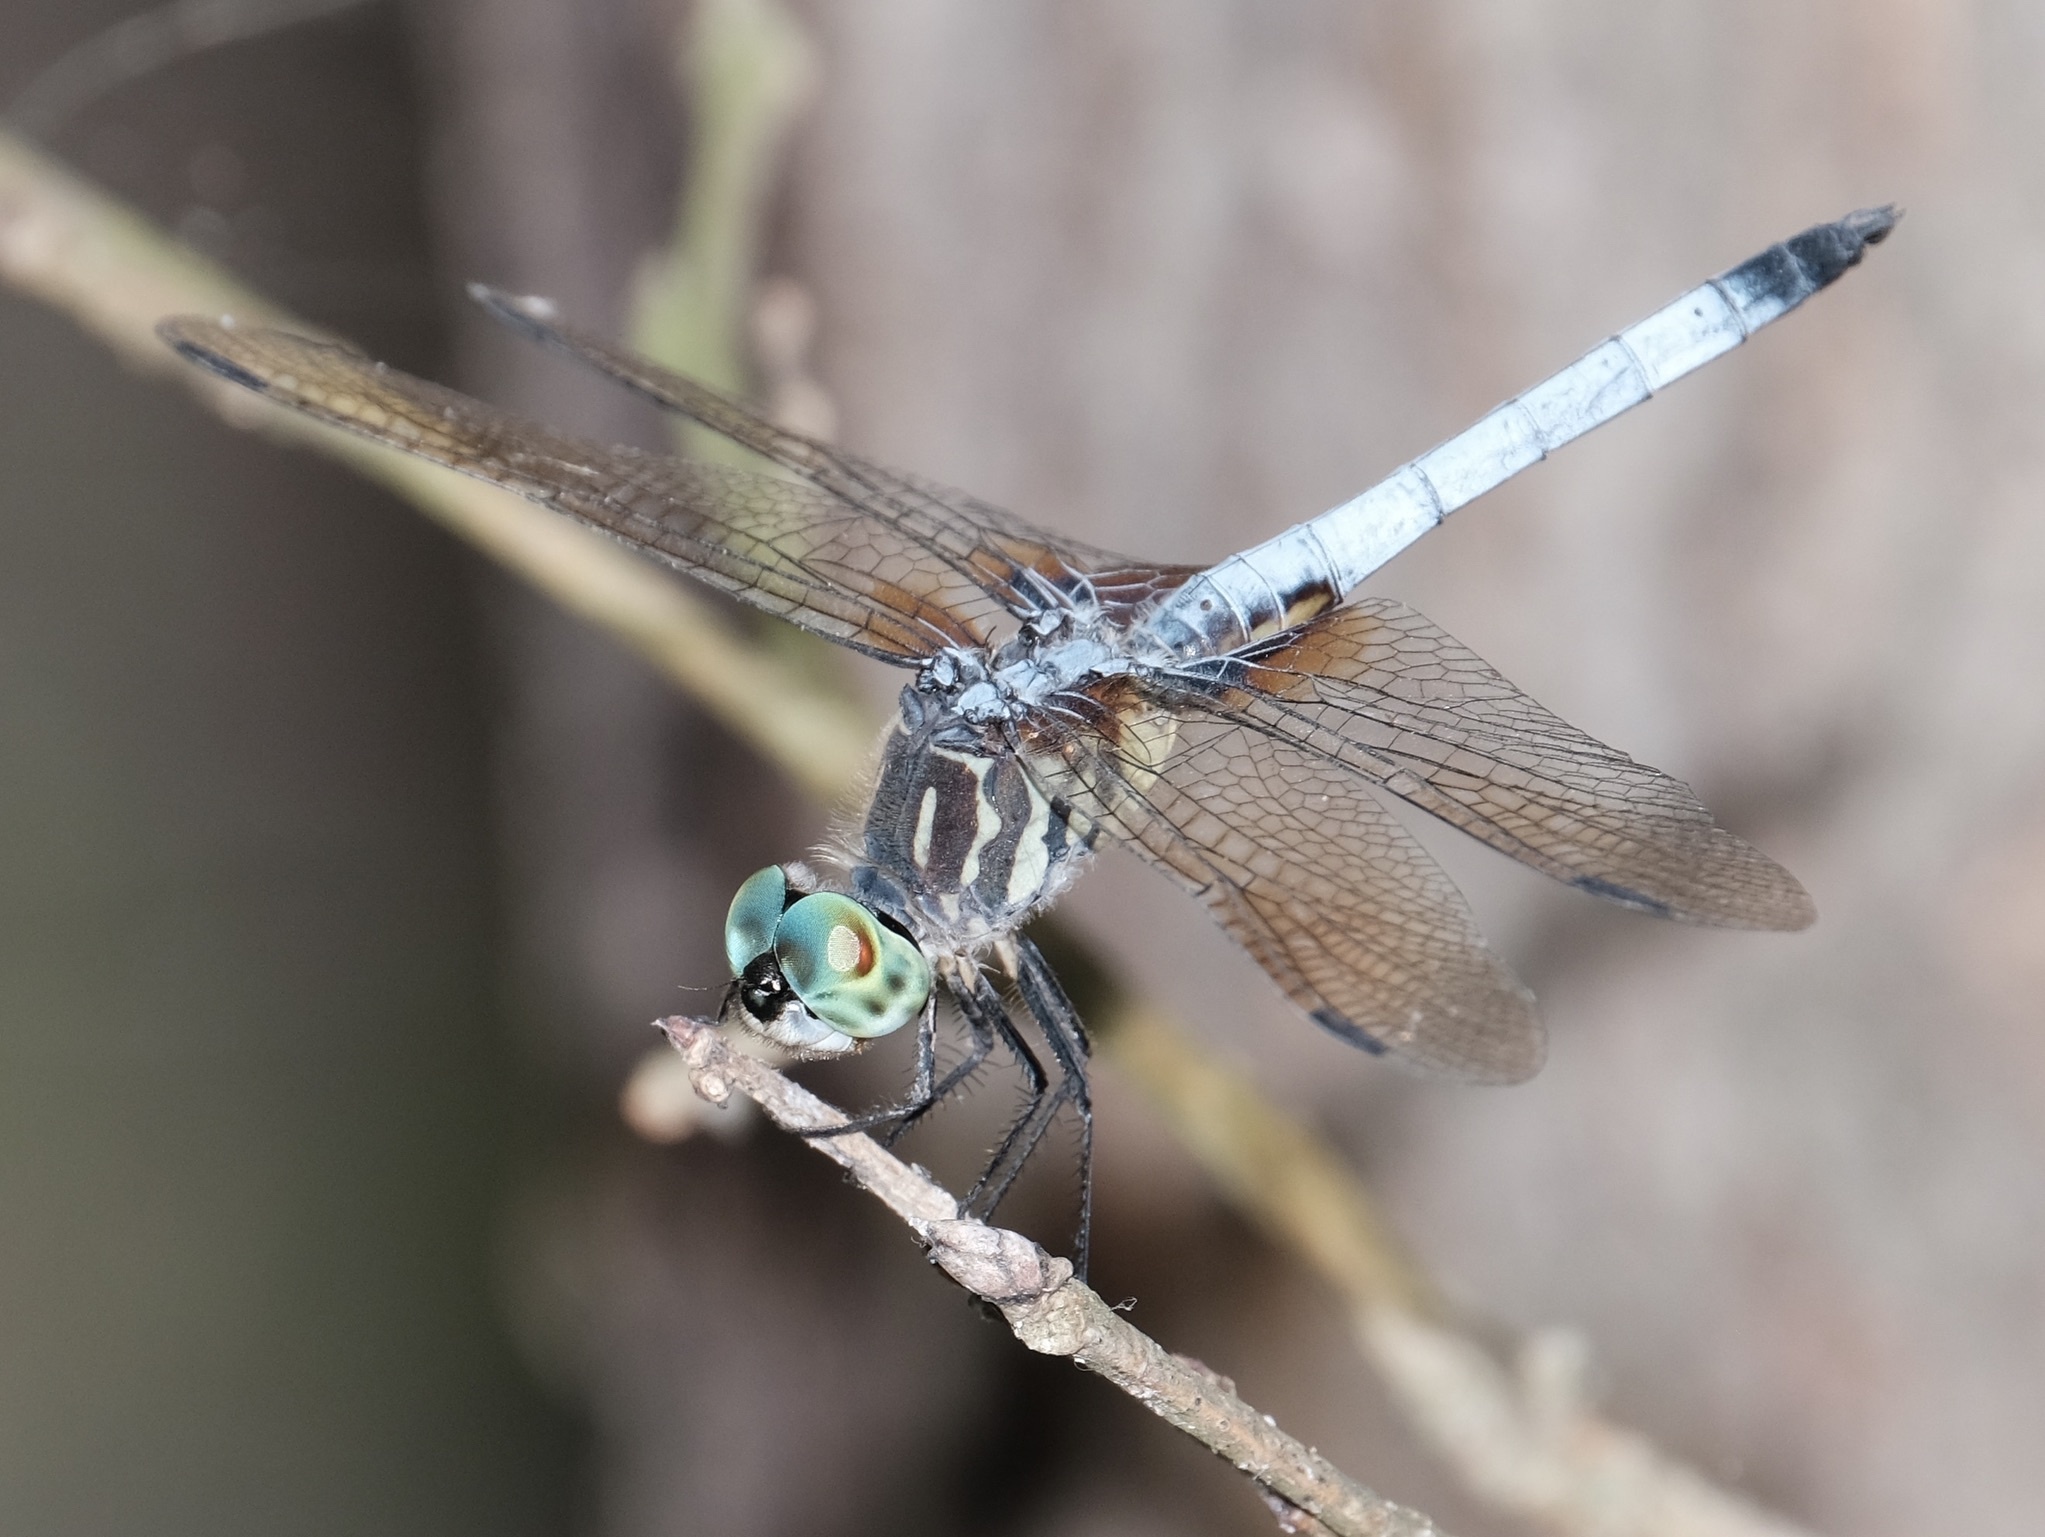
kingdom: Animalia
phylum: Arthropoda
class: Insecta
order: Odonata
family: Libellulidae
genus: Pachydiplax
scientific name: Pachydiplax longipennis
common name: Blue dasher
